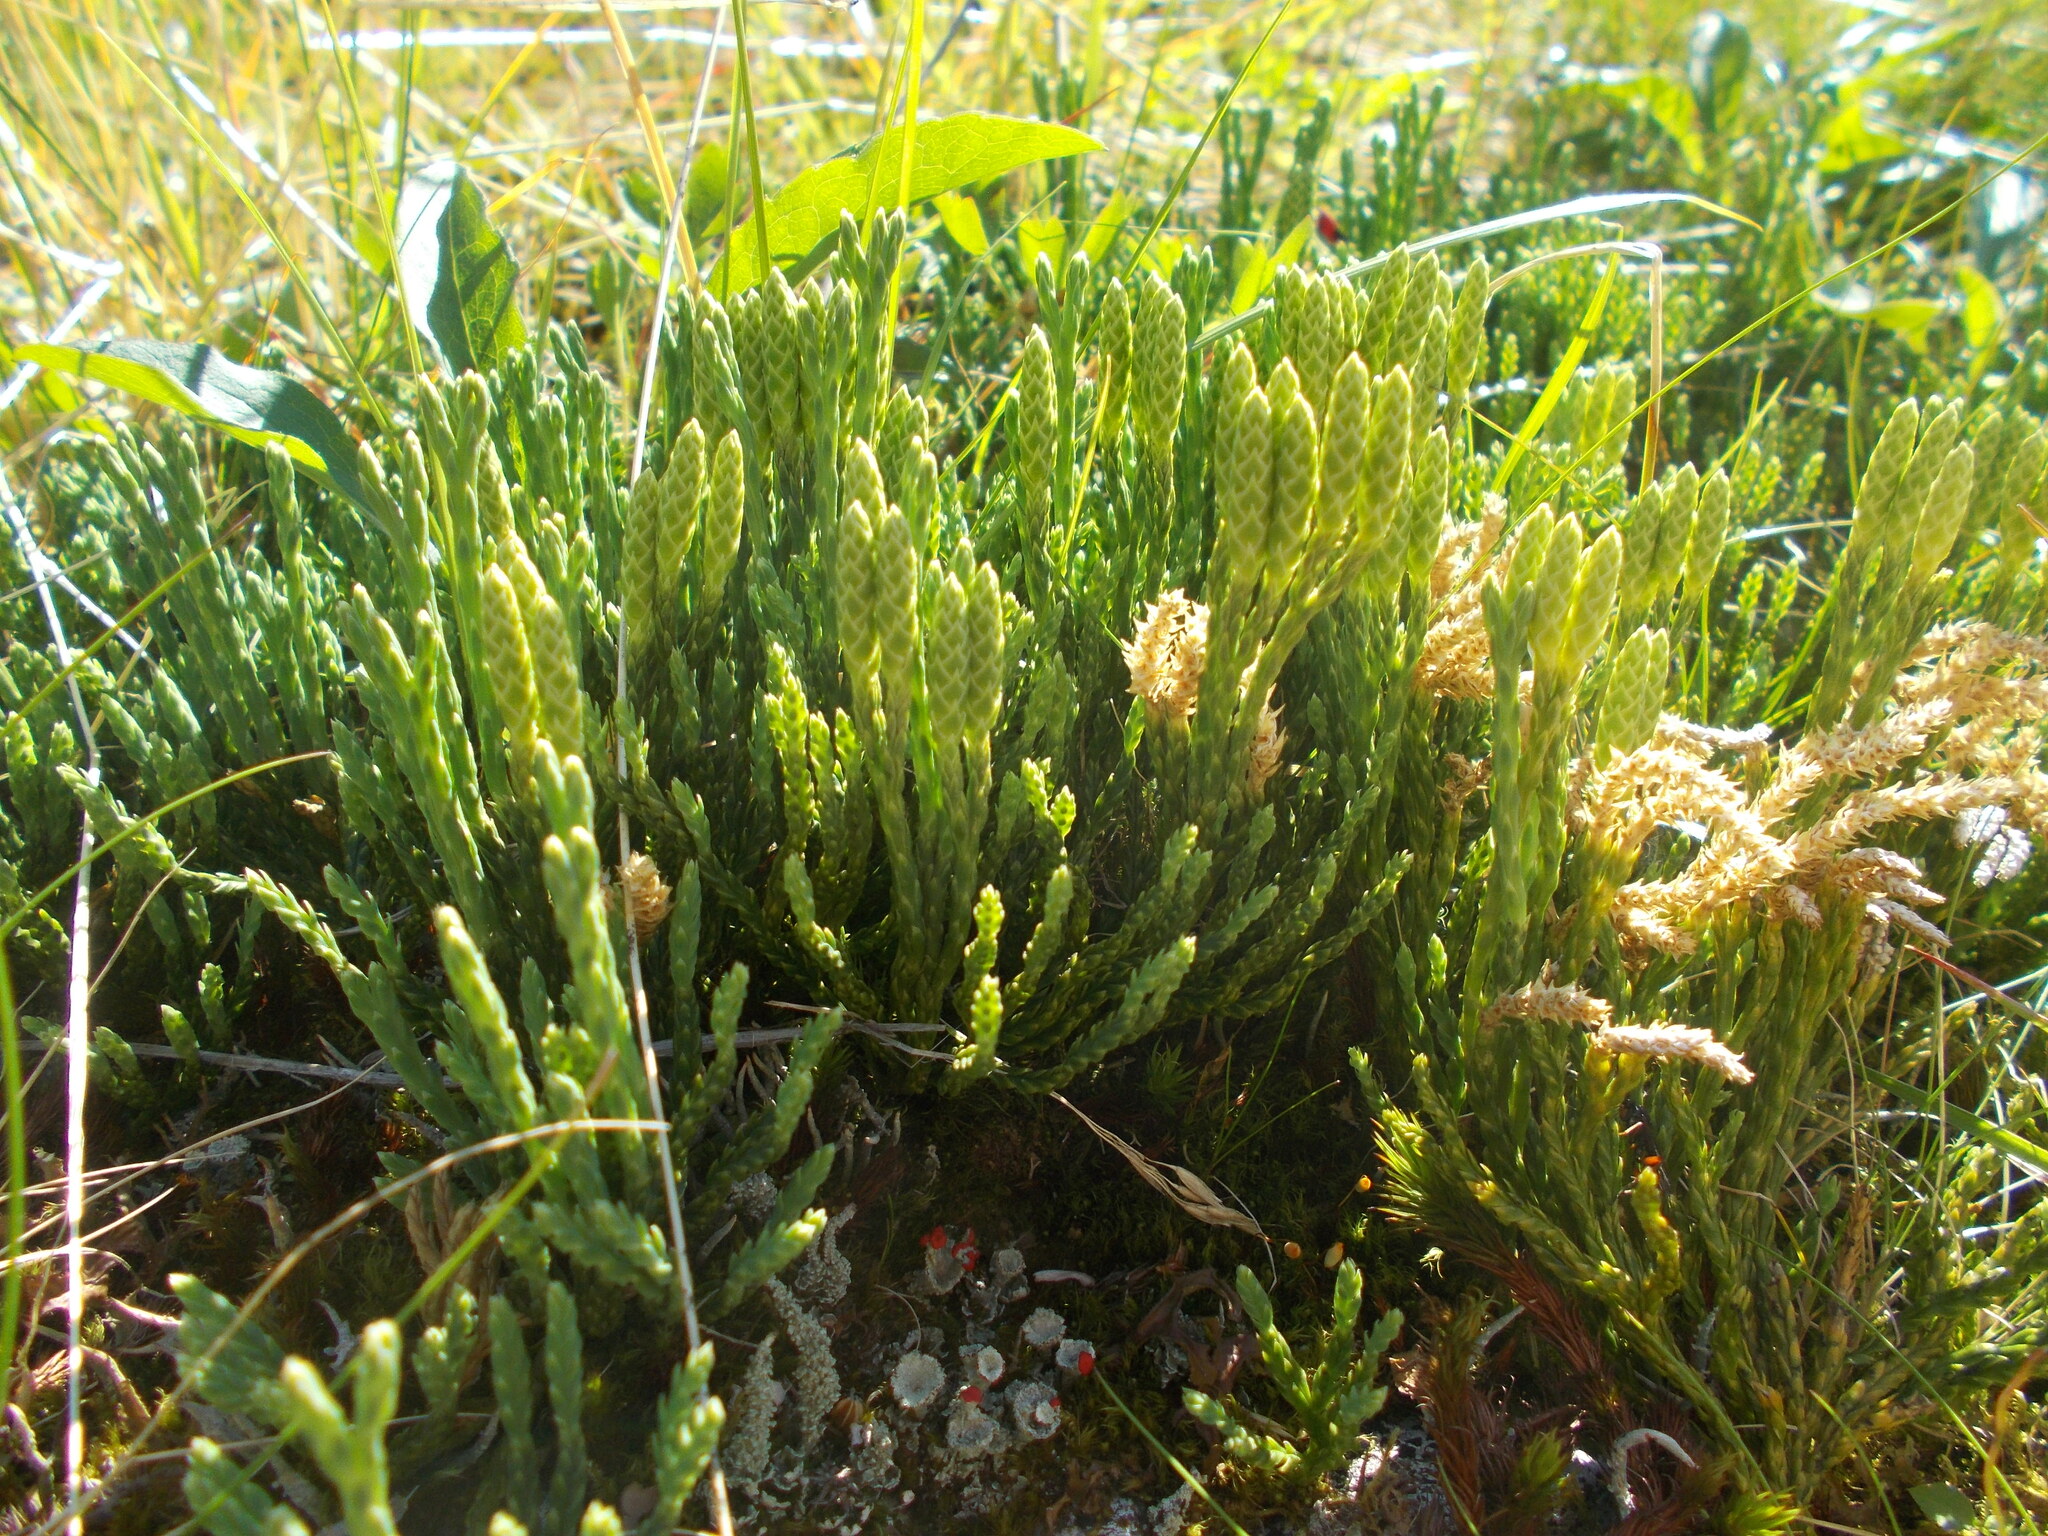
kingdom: Plantae
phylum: Tracheophyta
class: Lycopodiopsida
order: Lycopodiales
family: Lycopodiaceae
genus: Diphasiastrum
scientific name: Diphasiastrum alpinum
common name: Alpine clubmoss
